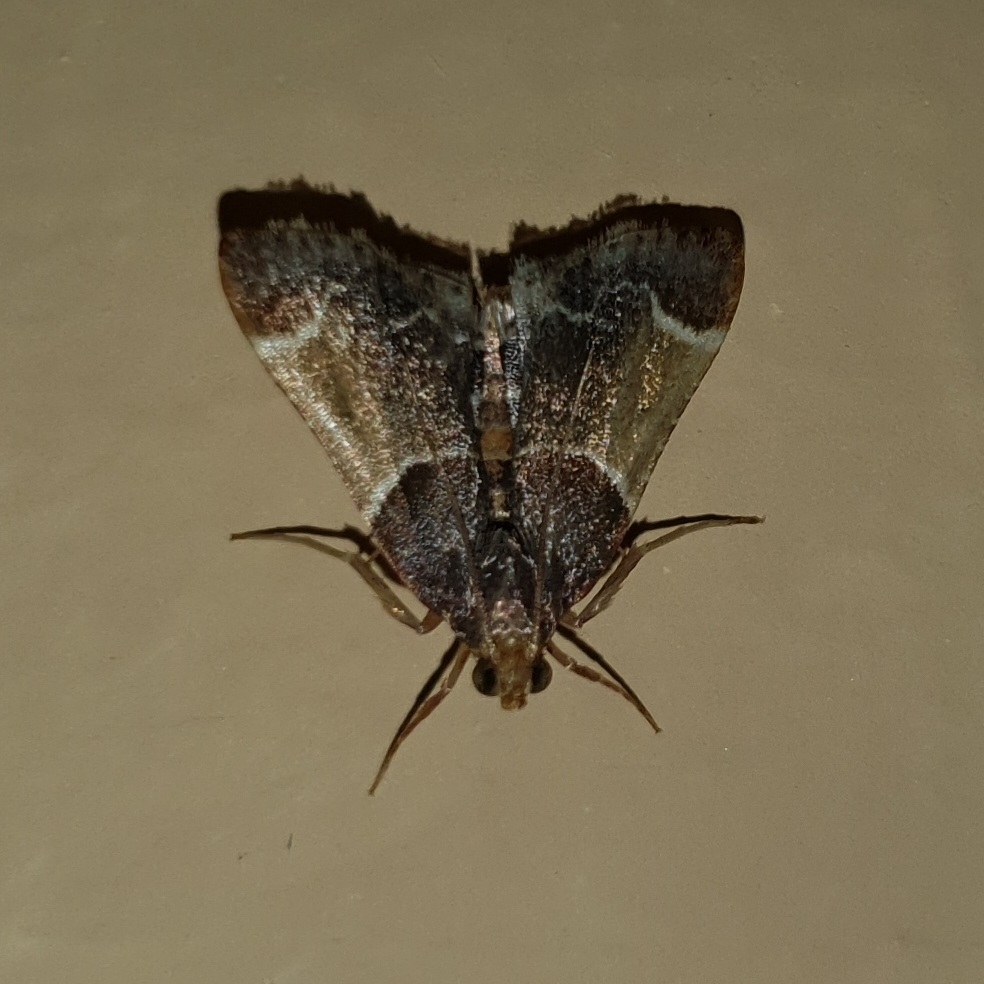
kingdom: Animalia
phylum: Arthropoda
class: Insecta
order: Lepidoptera
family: Pyralidae
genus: Pyralis
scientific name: Pyralis farinalis
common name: Meal moth
